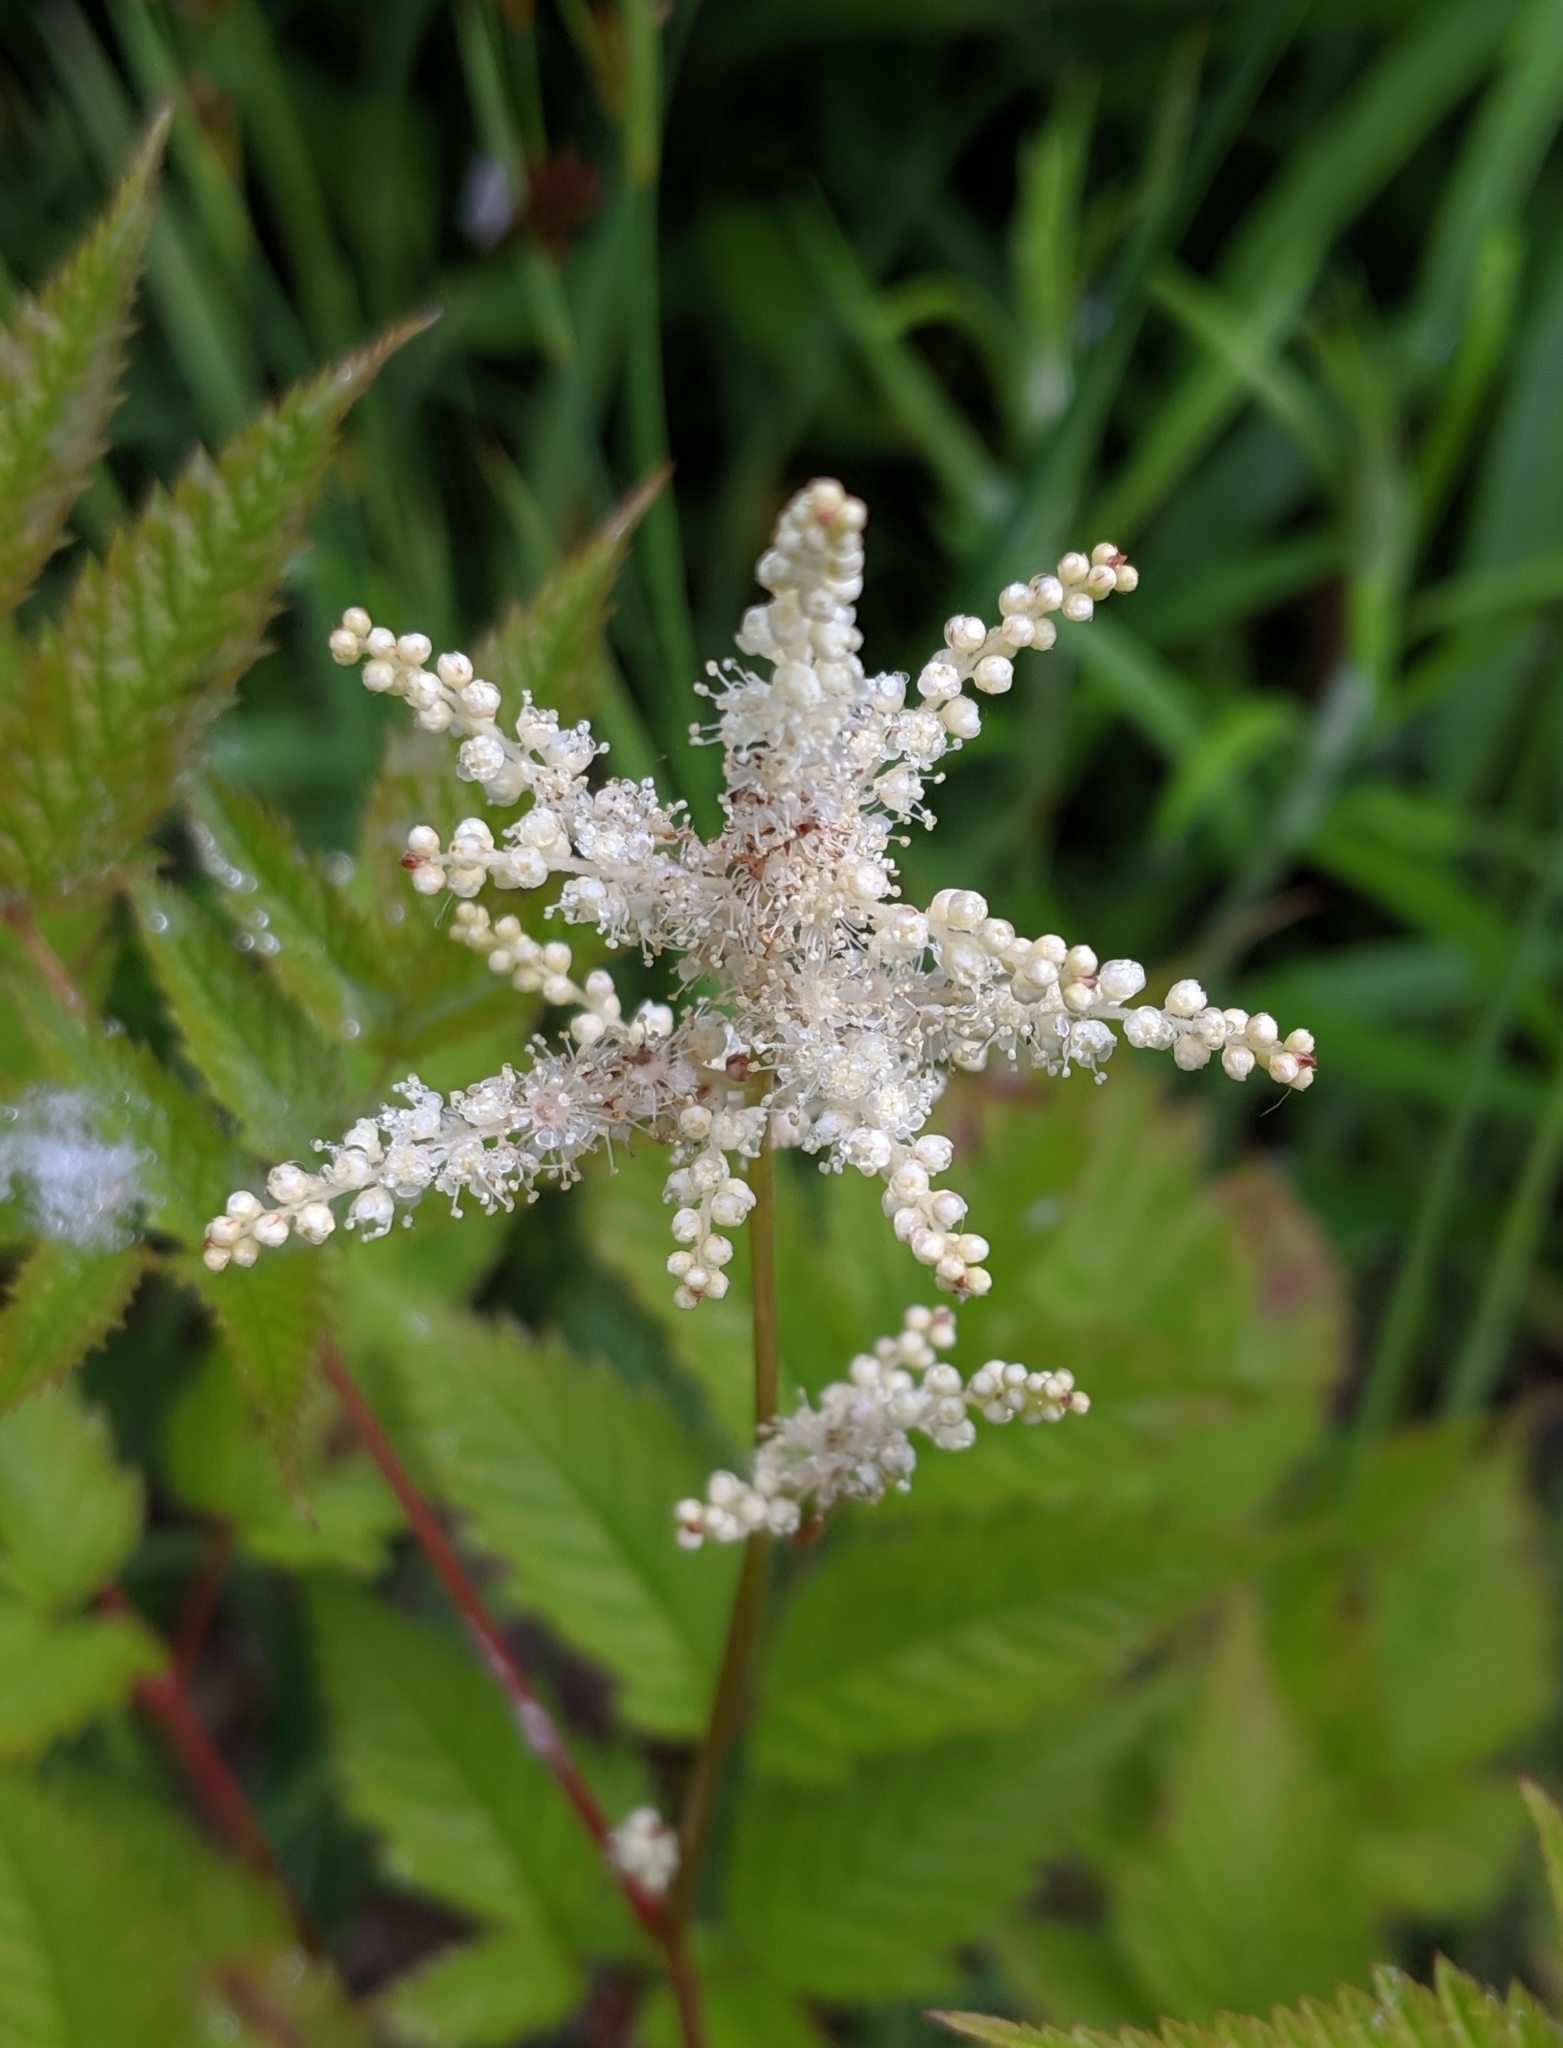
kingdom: Plantae
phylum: Tracheophyta
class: Magnoliopsida
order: Rosales
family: Rosaceae
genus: Aruncus
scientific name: Aruncus dioicus
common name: Buck's-beard
